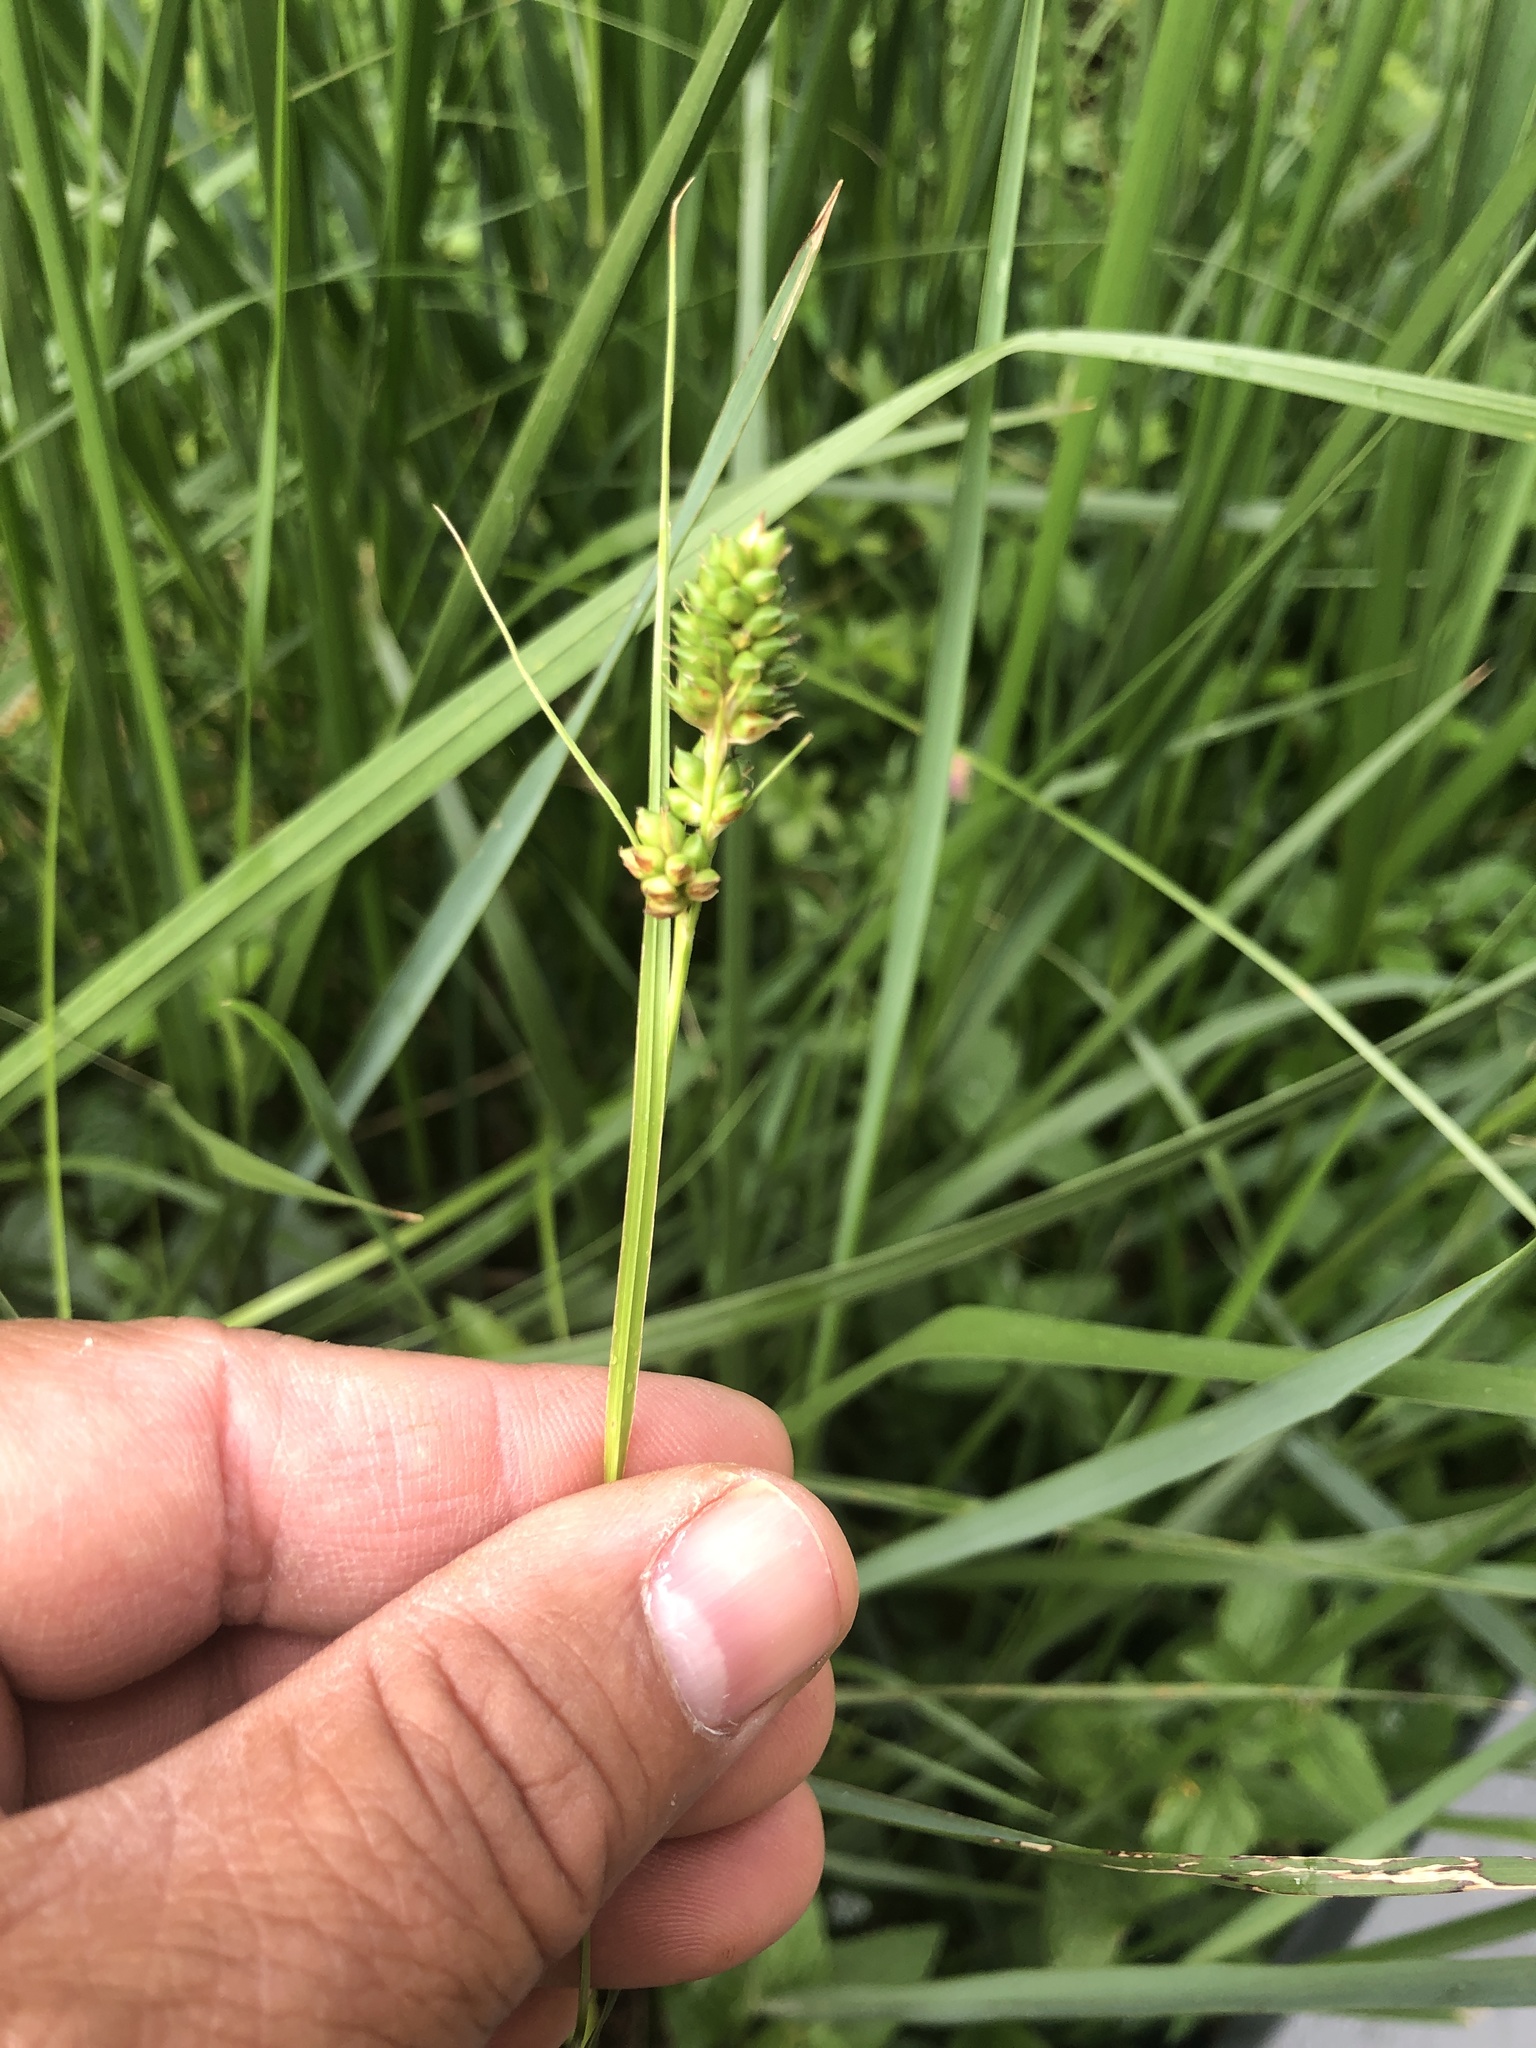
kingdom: Plantae
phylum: Tracheophyta
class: Liliopsida
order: Poales
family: Cyperaceae
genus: Carex
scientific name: Carex bushii
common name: Bush's sedge
